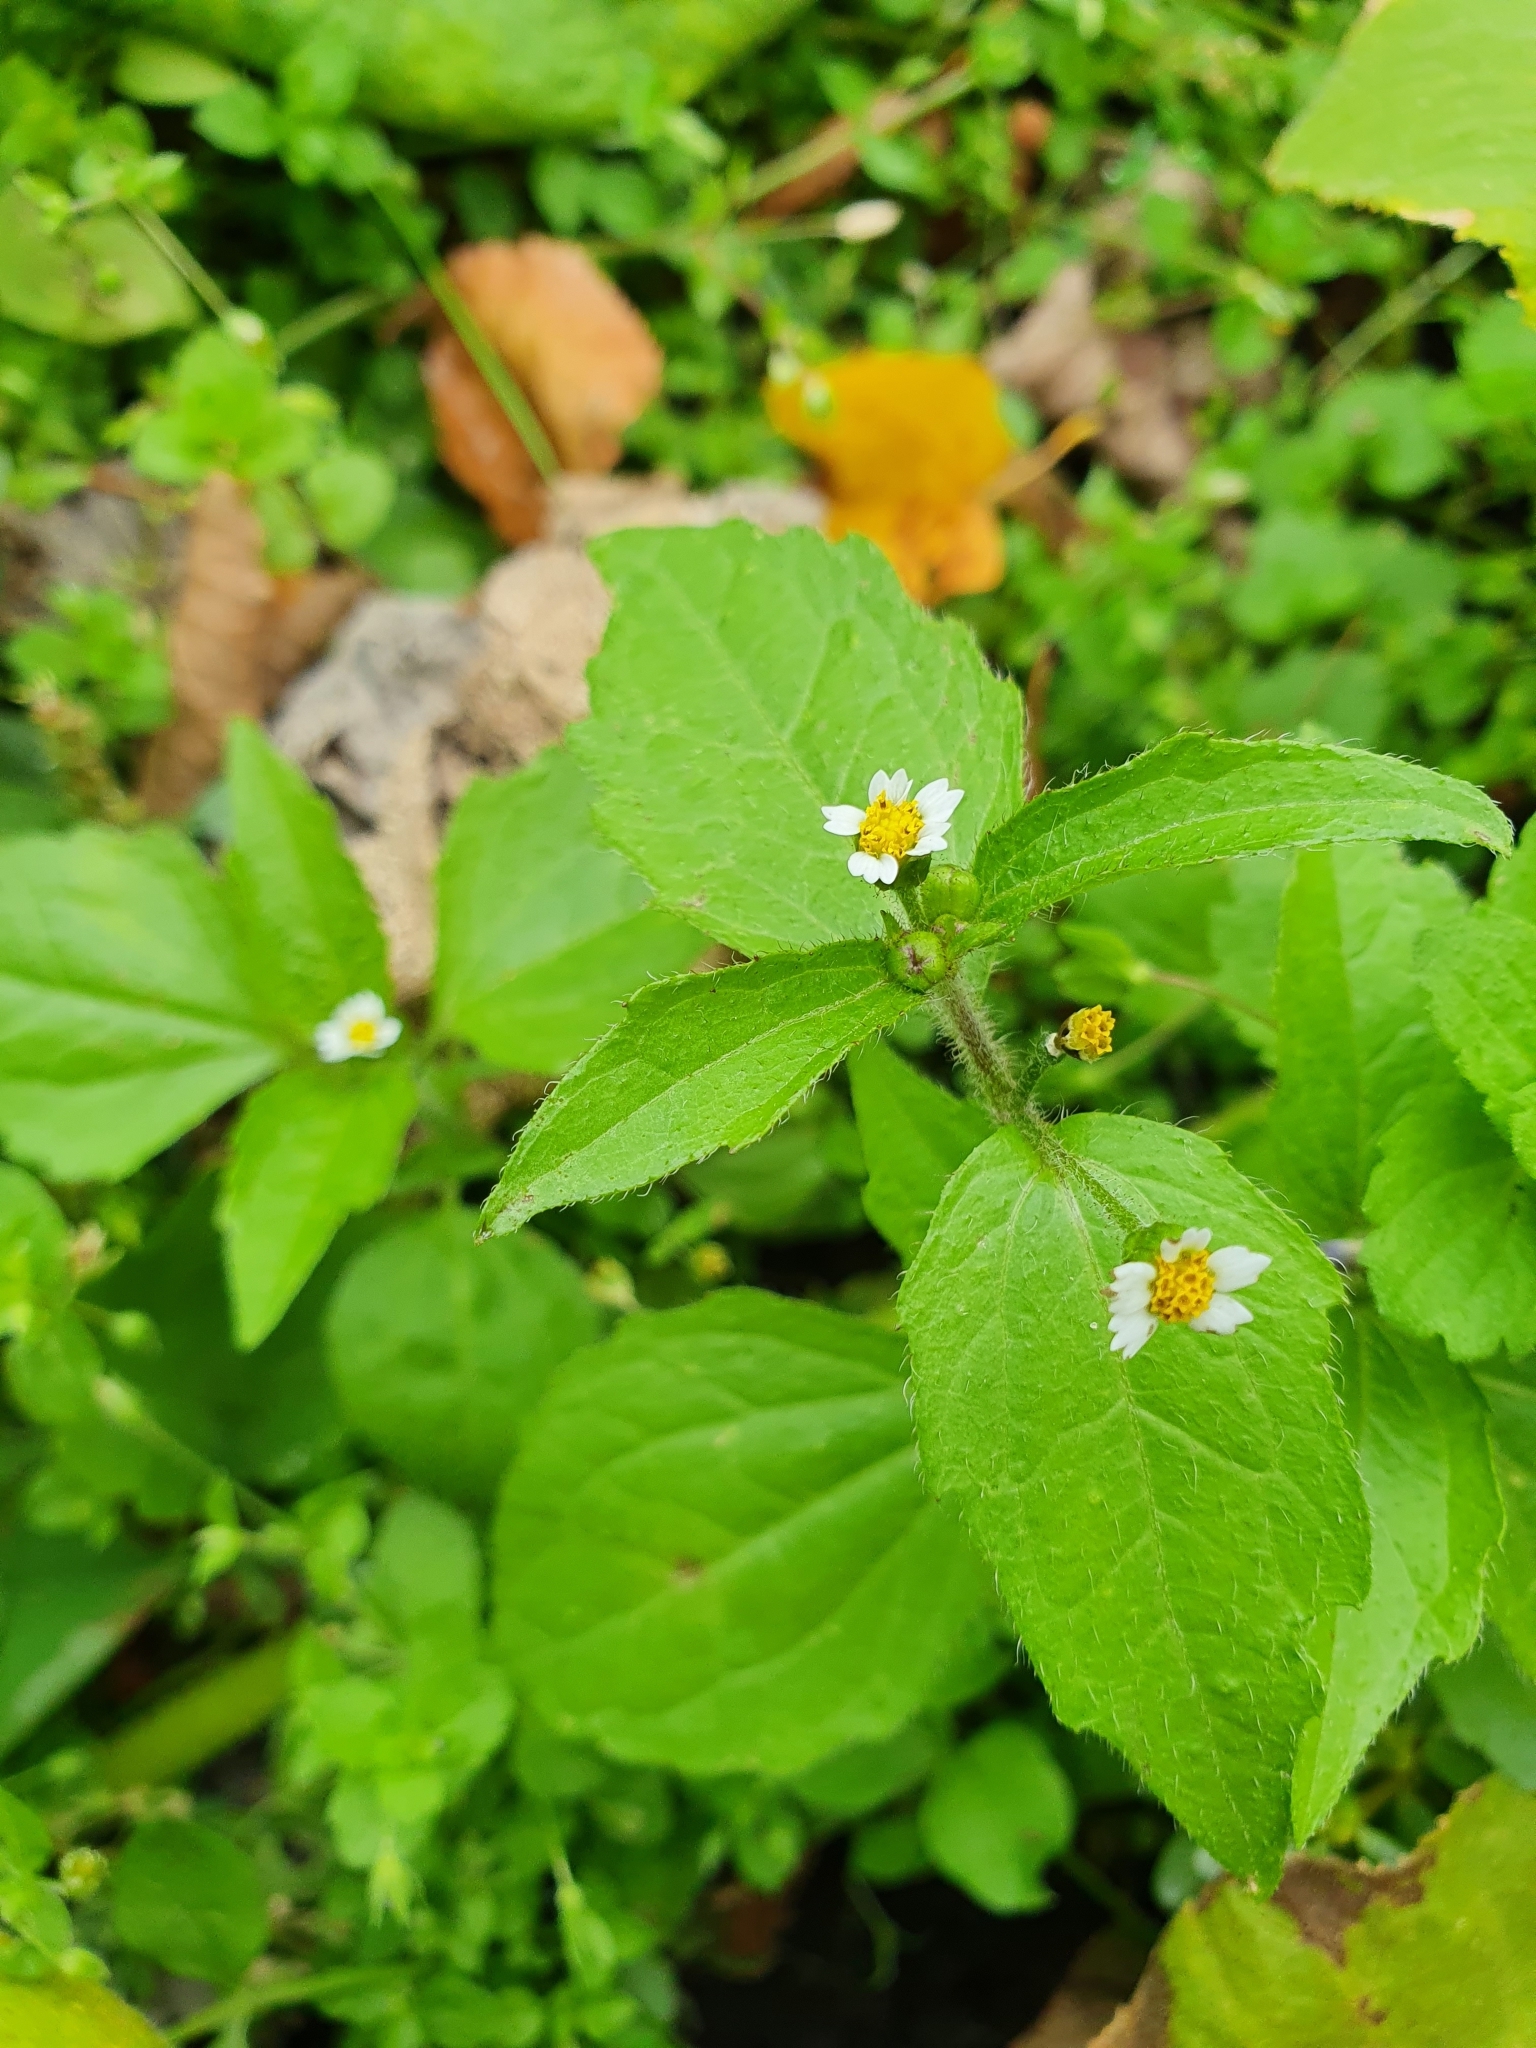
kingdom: Plantae
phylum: Tracheophyta
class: Magnoliopsida
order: Asterales
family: Asteraceae
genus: Galinsoga
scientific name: Galinsoga quadriradiata
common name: Shaggy soldier
